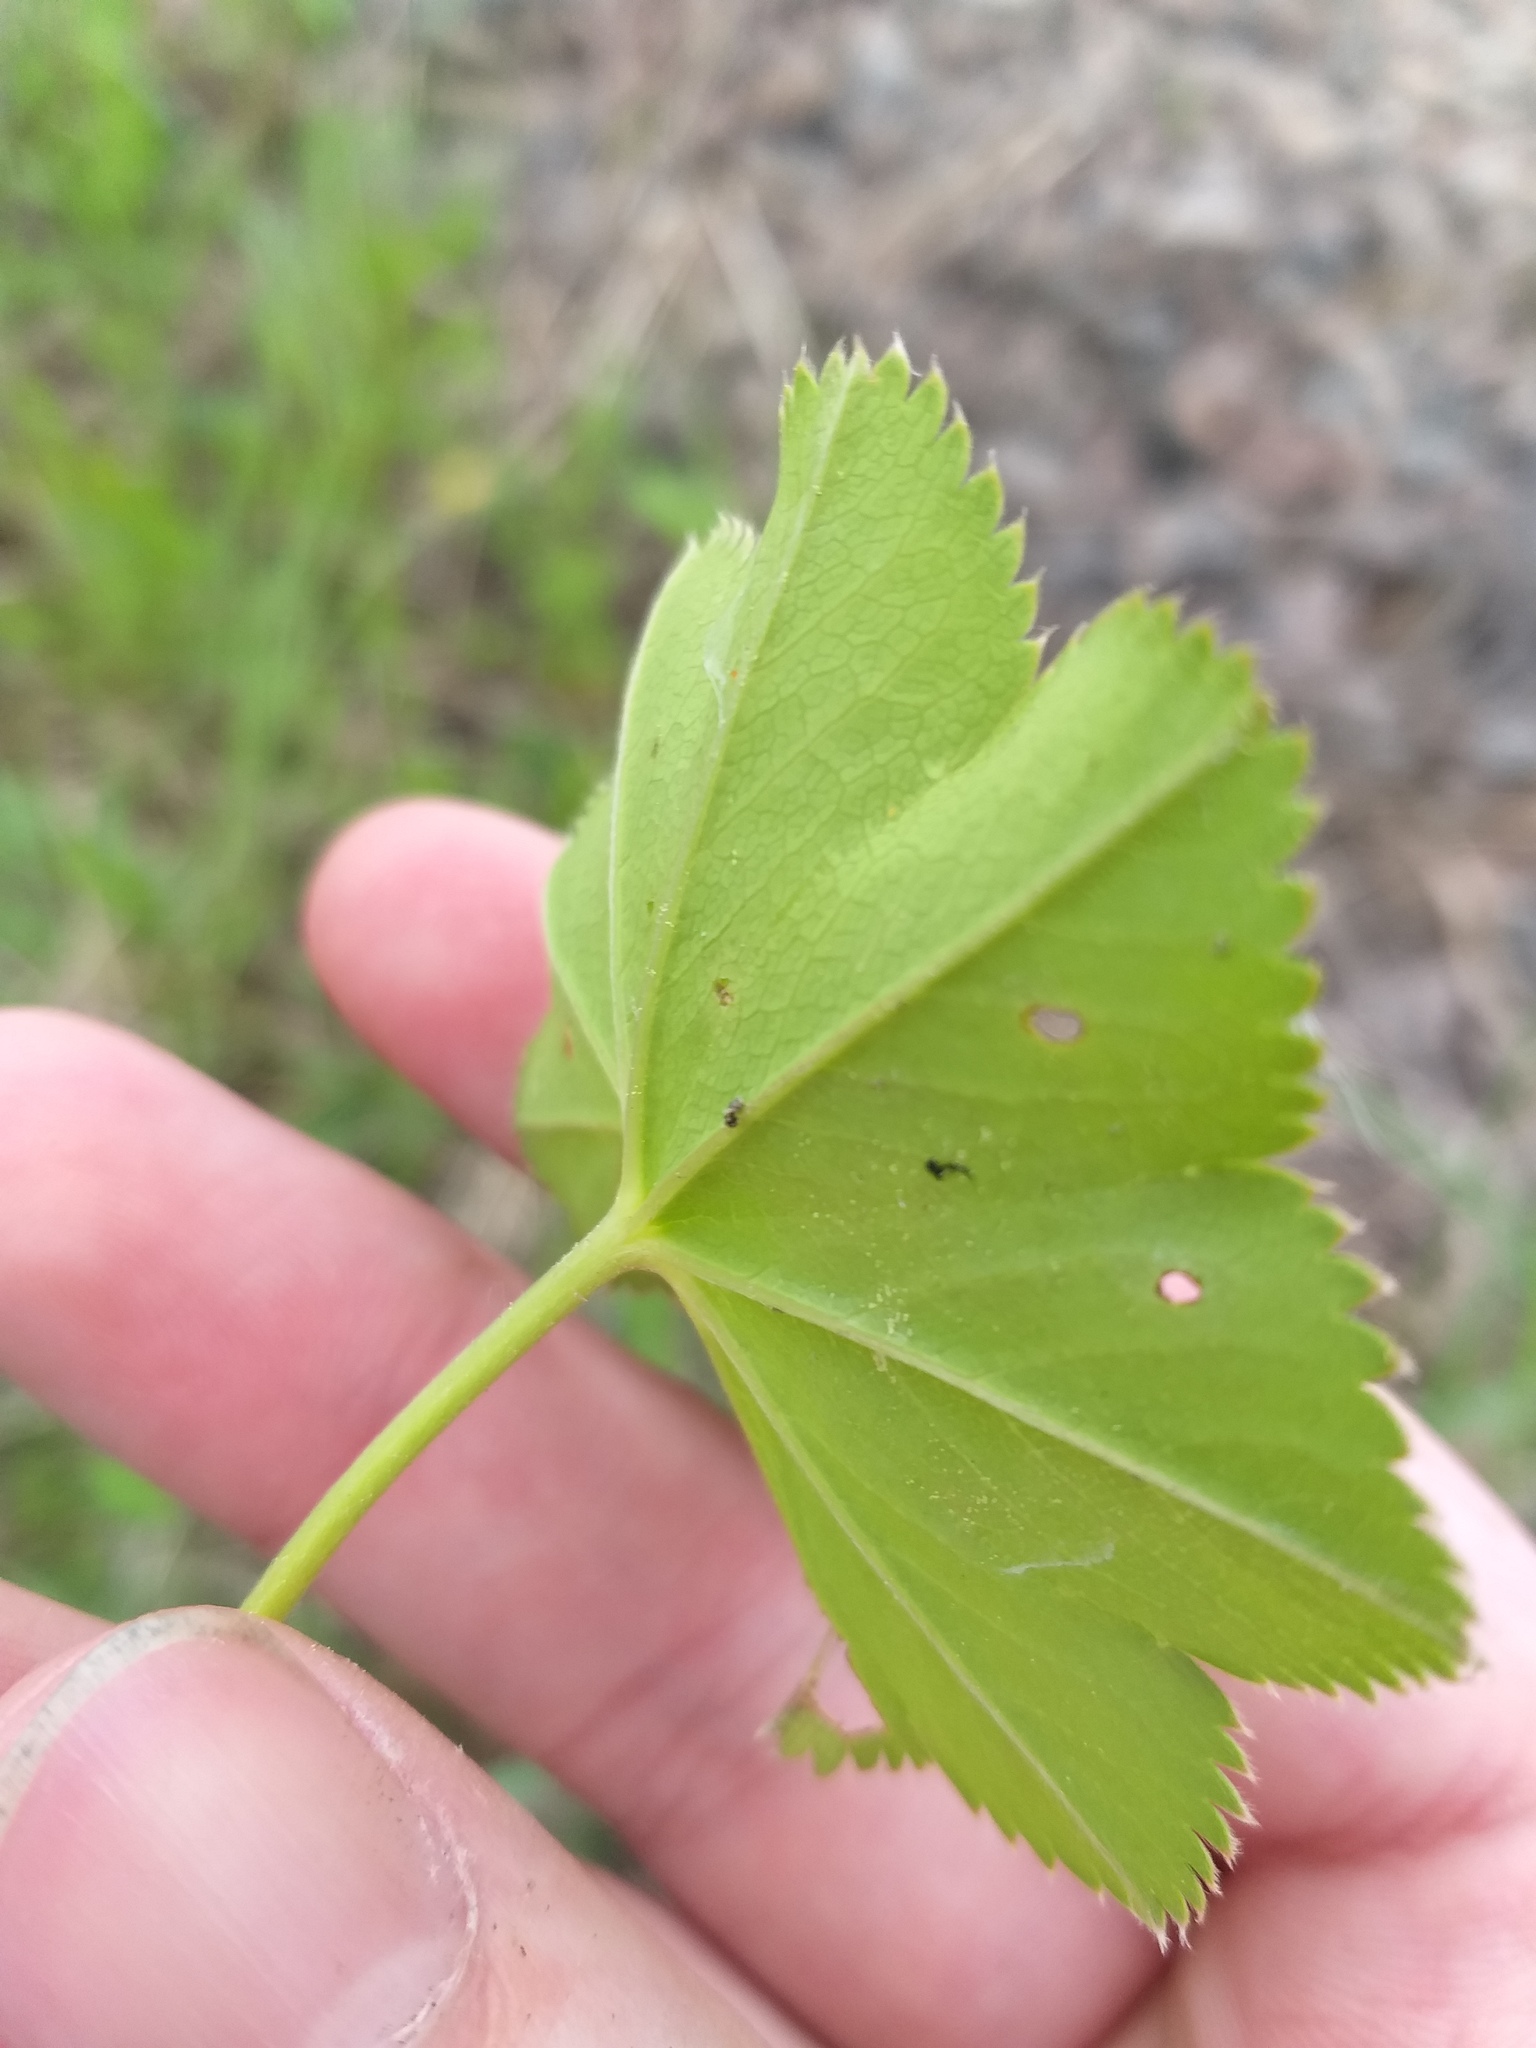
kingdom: Plantae
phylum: Tracheophyta
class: Magnoliopsida
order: Rosales
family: Rosaceae
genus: Alchemilla
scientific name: Alchemilla baltica
